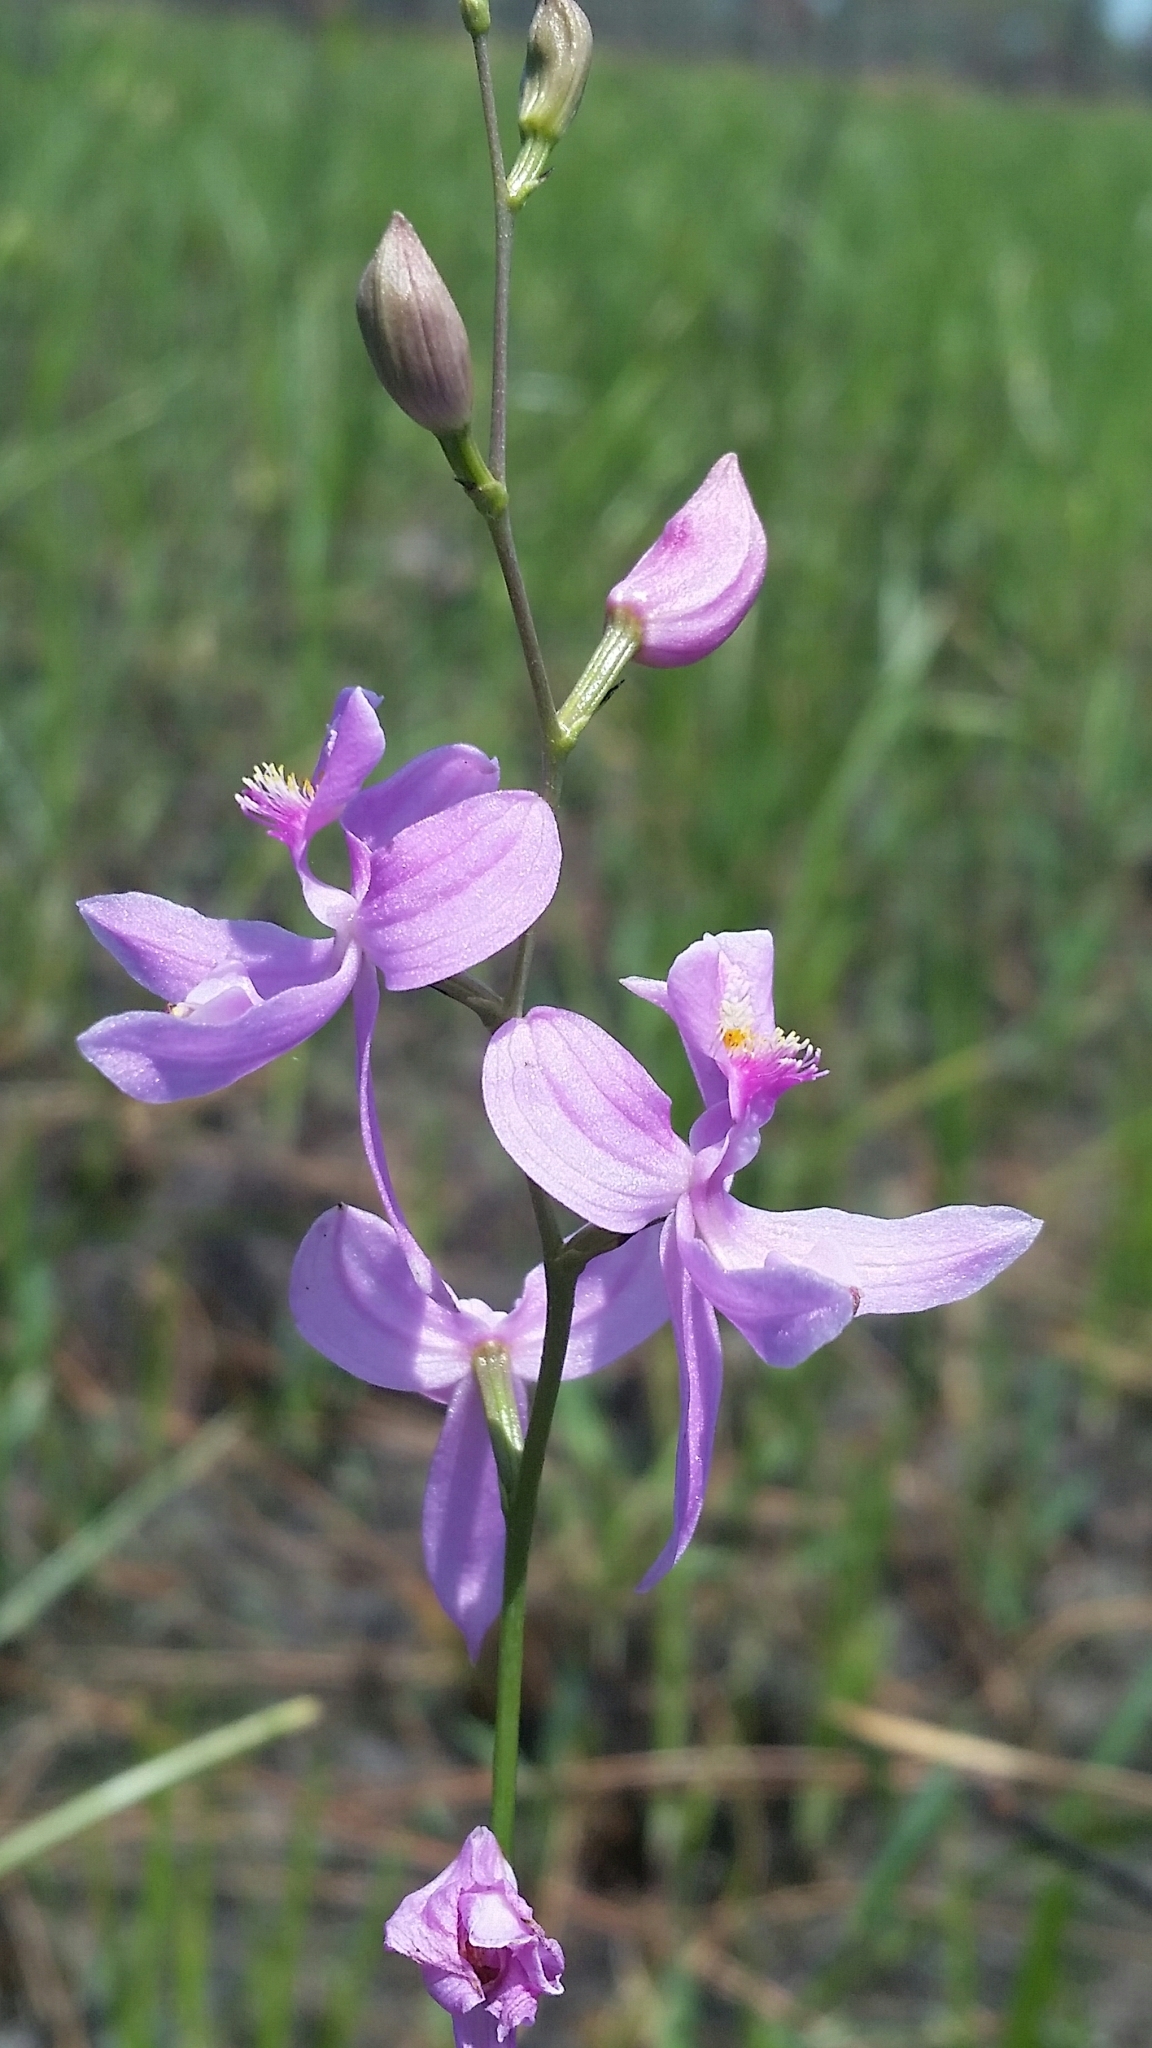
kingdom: Plantae
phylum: Tracheophyta
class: Liliopsida
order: Asparagales
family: Orchidaceae
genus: Calopogon
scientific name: Calopogon pallidus
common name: Pale grasspink
